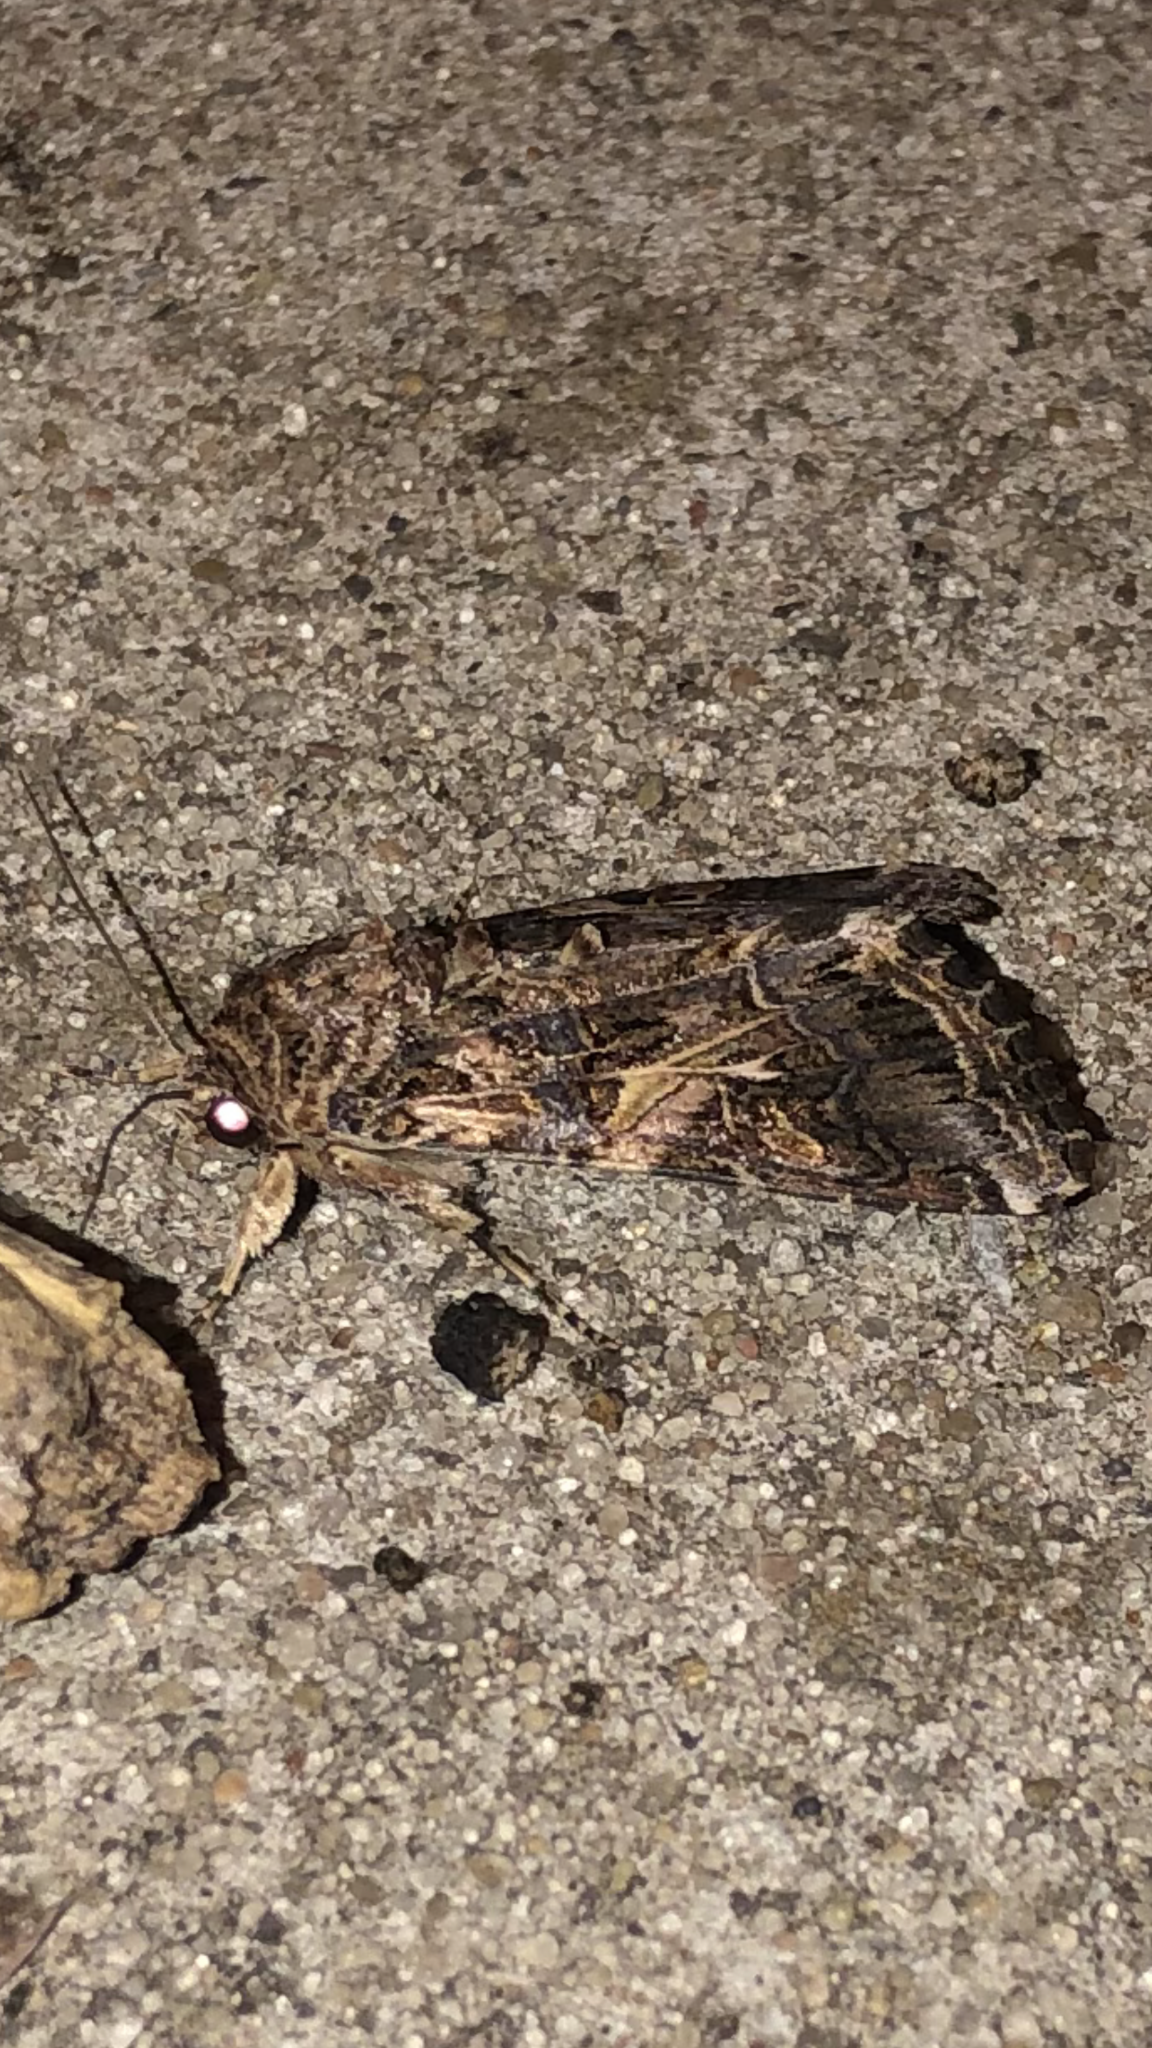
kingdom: Animalia
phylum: Arthropoda
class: Insecta
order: Lepidoptera
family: Noctuidae
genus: Spodoptera
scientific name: Spodoptera ornithogalli
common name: Yellow-striped armyworm
